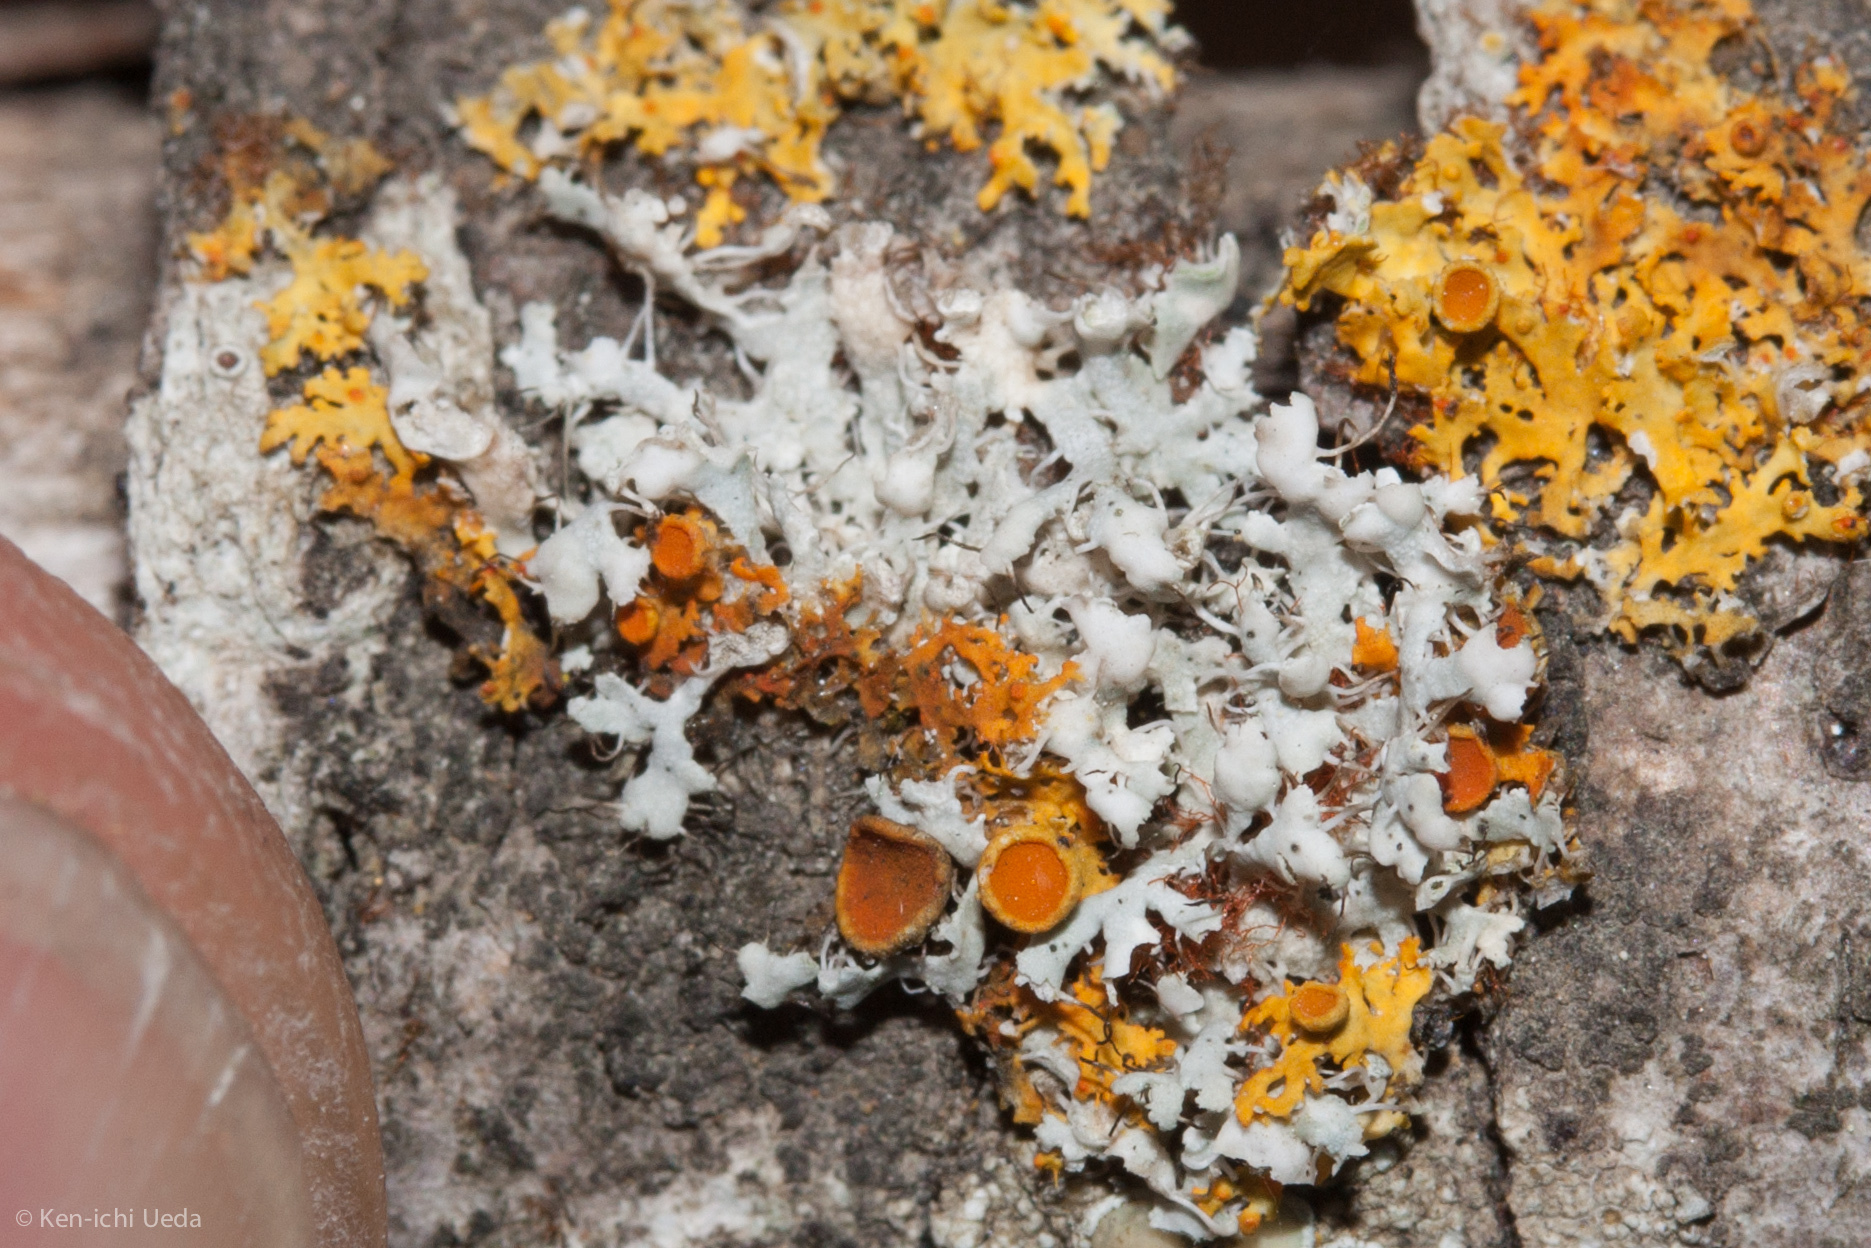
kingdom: Fungi
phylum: Ascomycota
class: Lecanoromycetes
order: Caliciales
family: Physciaceae
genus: Physcia
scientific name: Physcia adscendens
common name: Hooded rosette lichen
